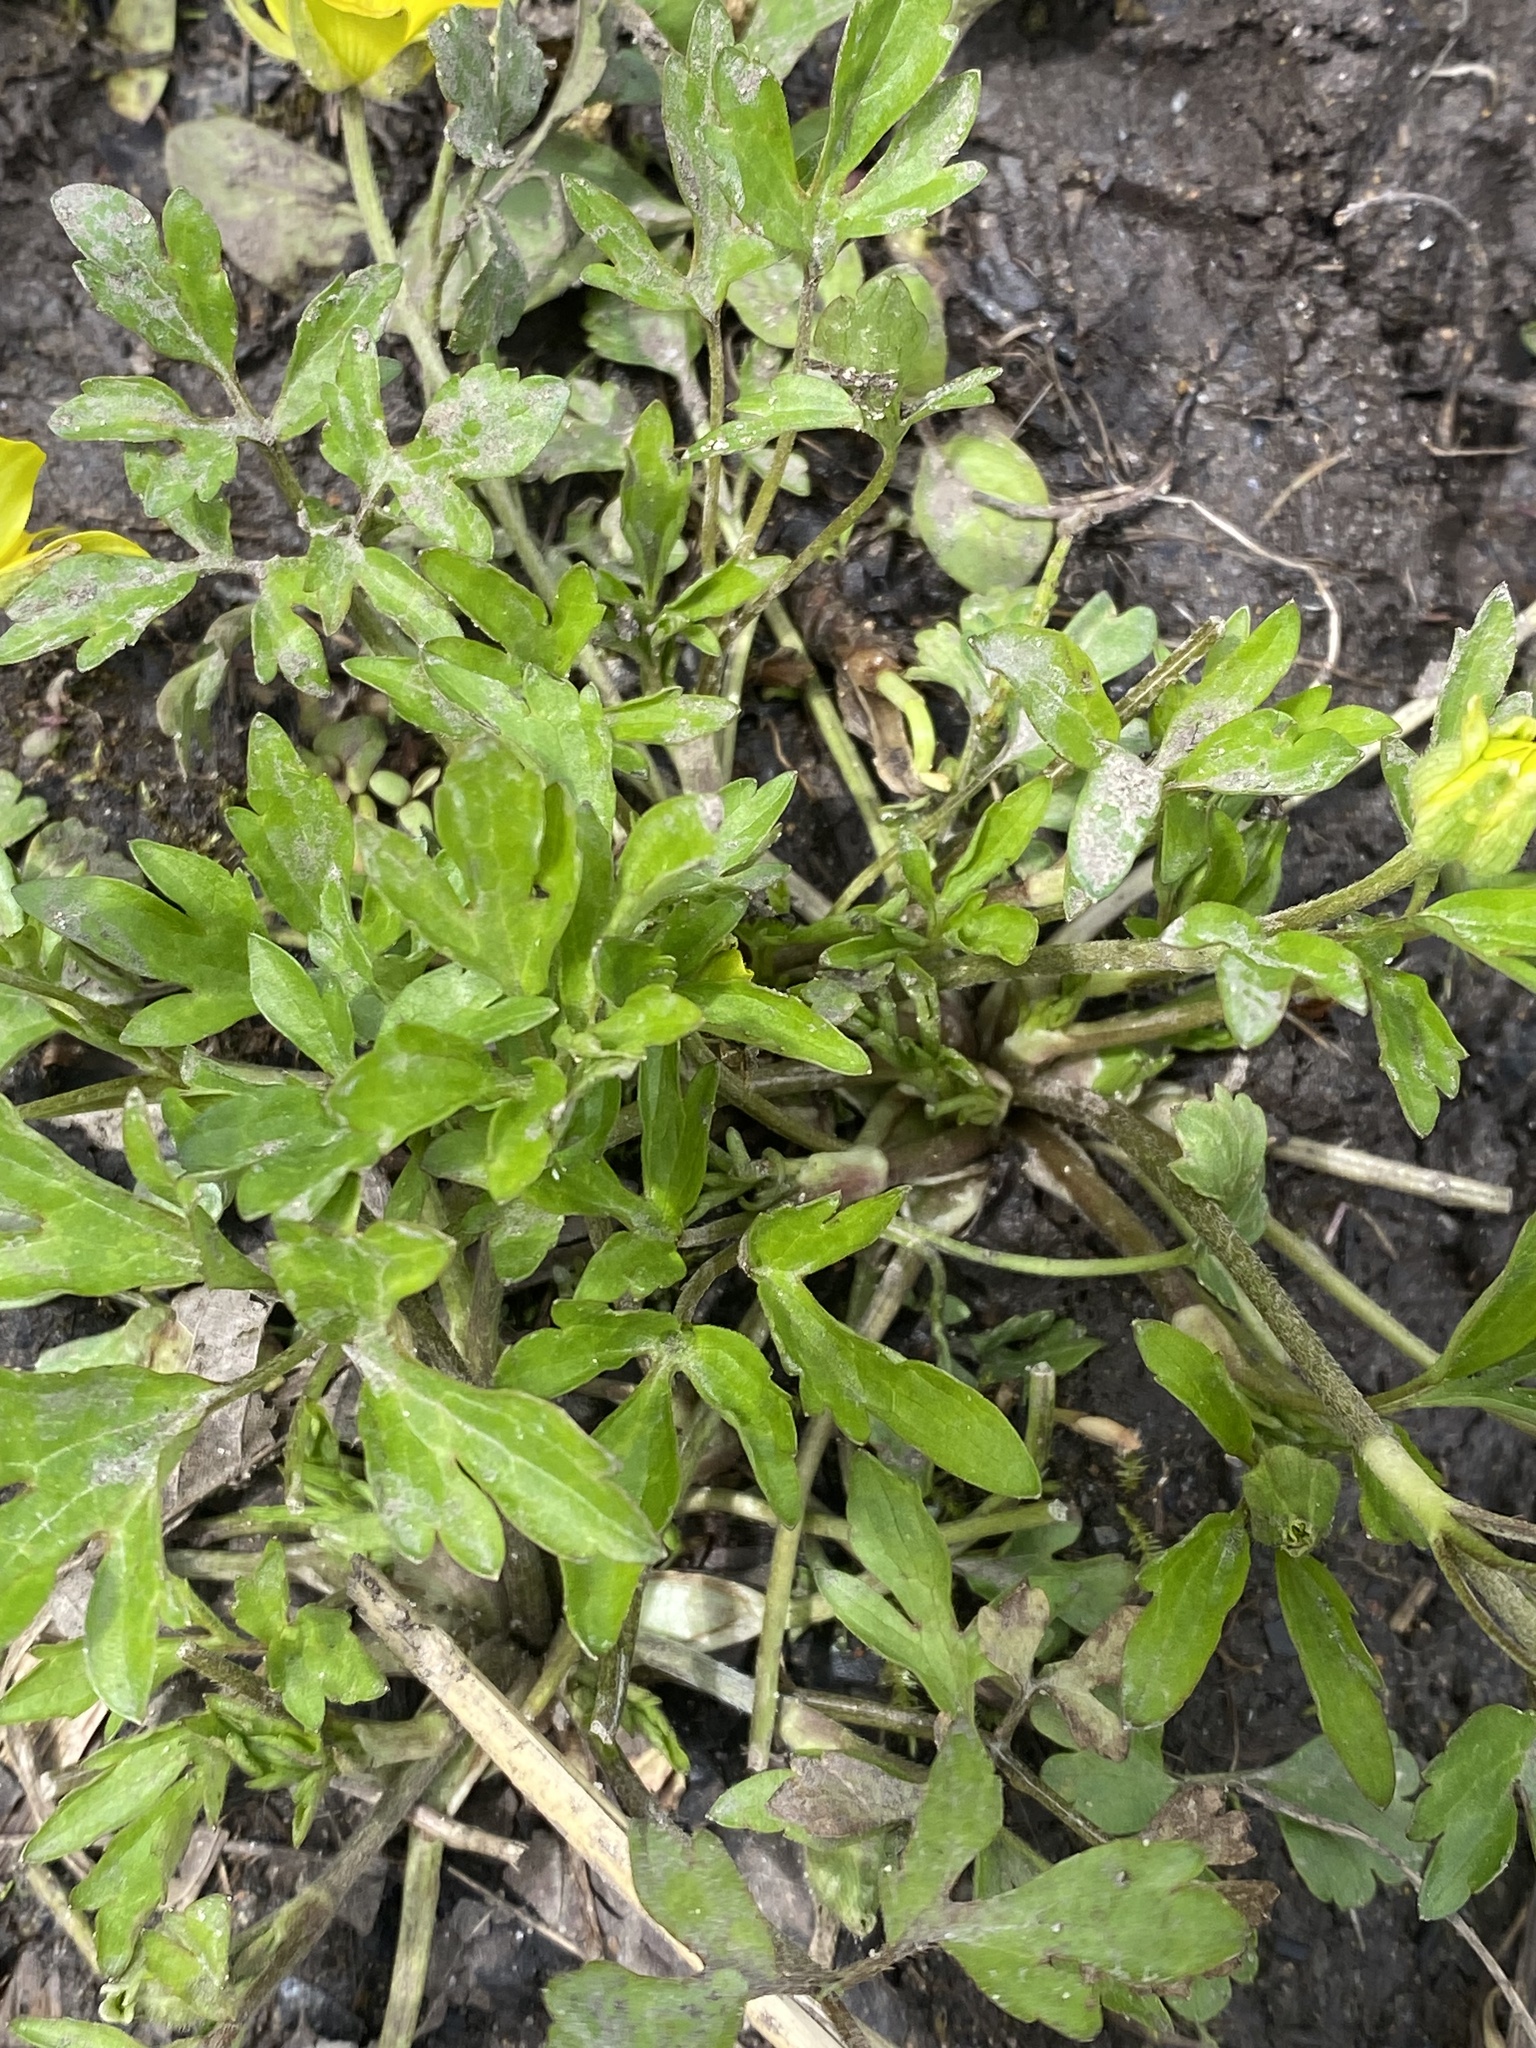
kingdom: Plantae
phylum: Tracheophyta
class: Magnoliopsida
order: Ranunculales
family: Ranunculaceae
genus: Ranunculus
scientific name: Ranunculus hispidus
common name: Bristly buttercup
